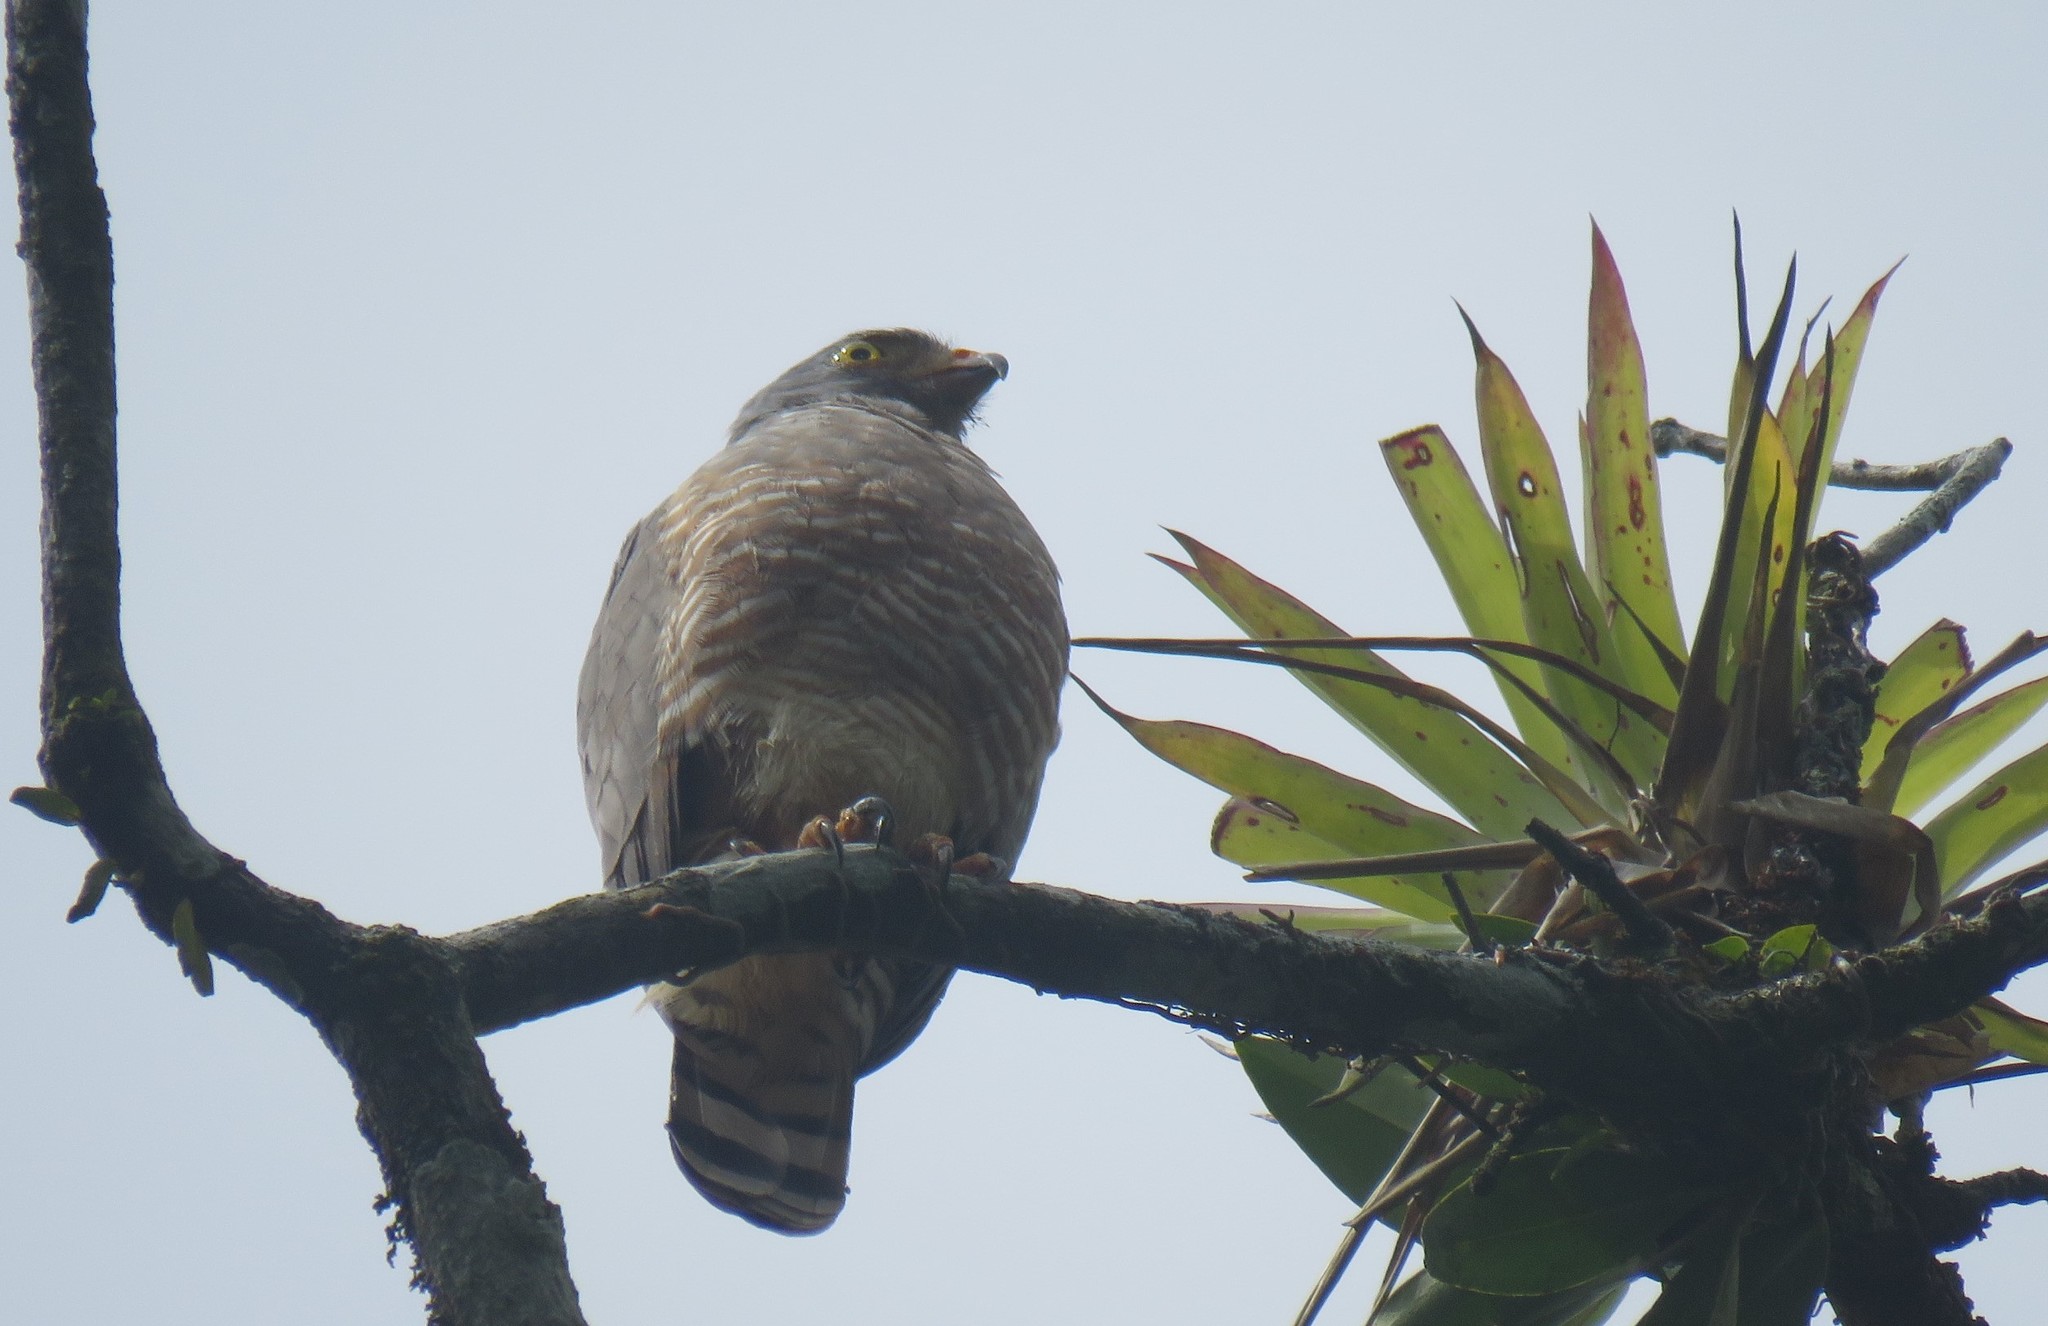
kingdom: Animalia
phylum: Chordata
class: Aves
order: Accipitriformes
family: Accipitridae
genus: Rupornis
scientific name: Rupornis magnirostris
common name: Roadside hawk
